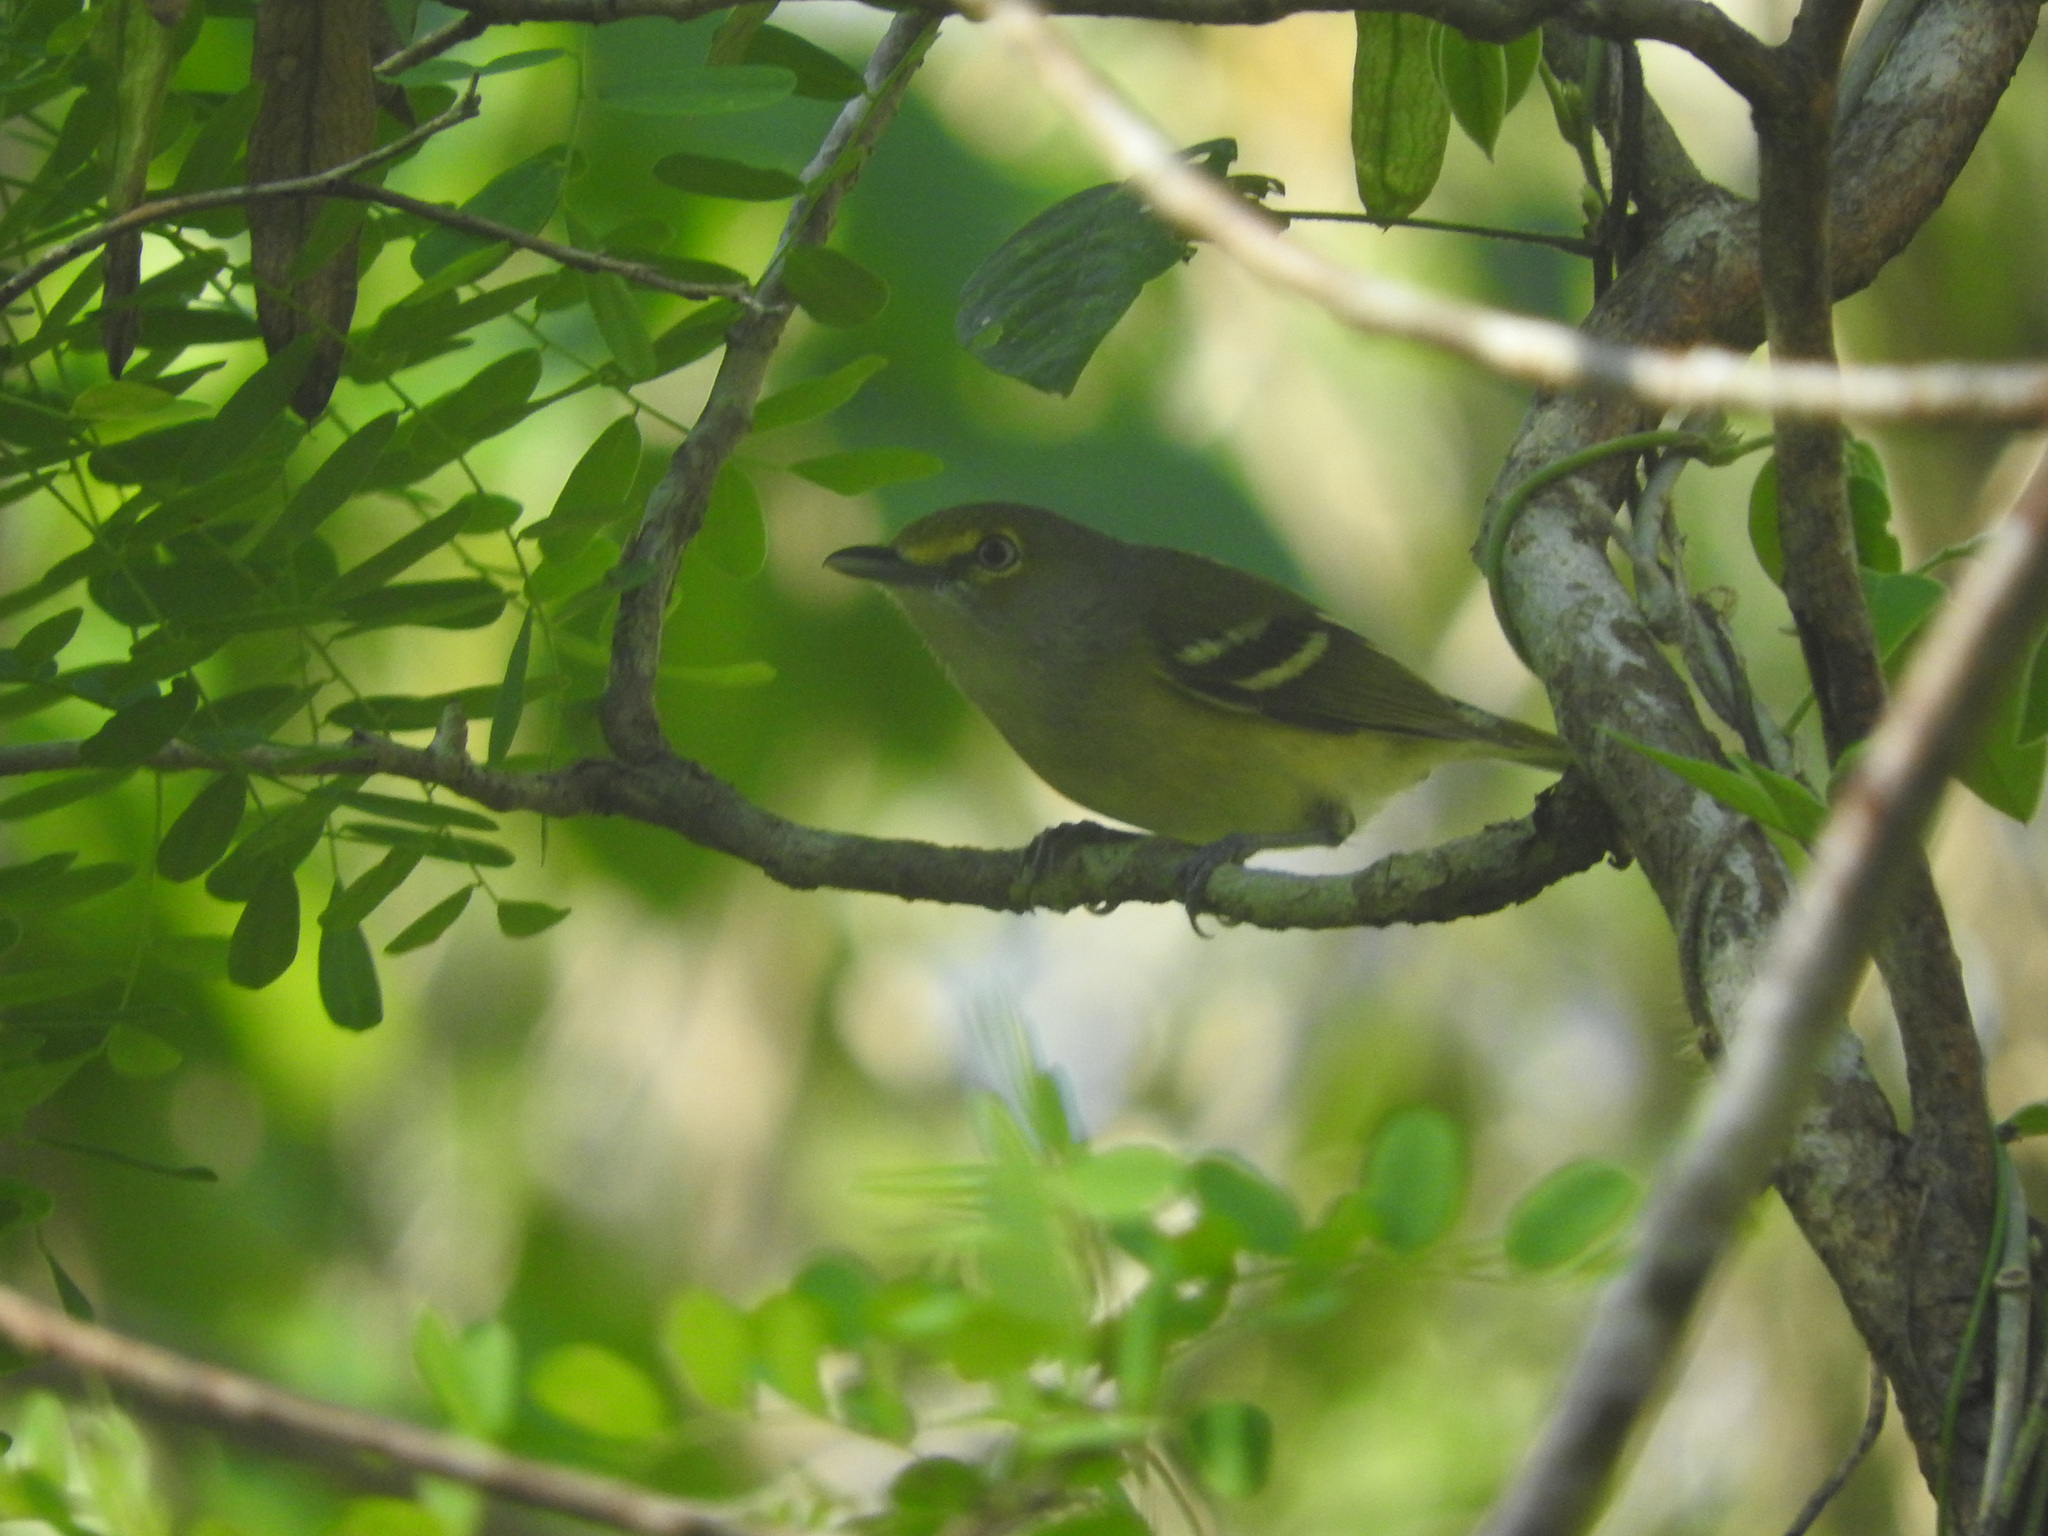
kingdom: Animalia
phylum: Chordata
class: Aves
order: Passeriformes
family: Vireonidae
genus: Vireo
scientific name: Vireo griseus
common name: White-eyed vireo
